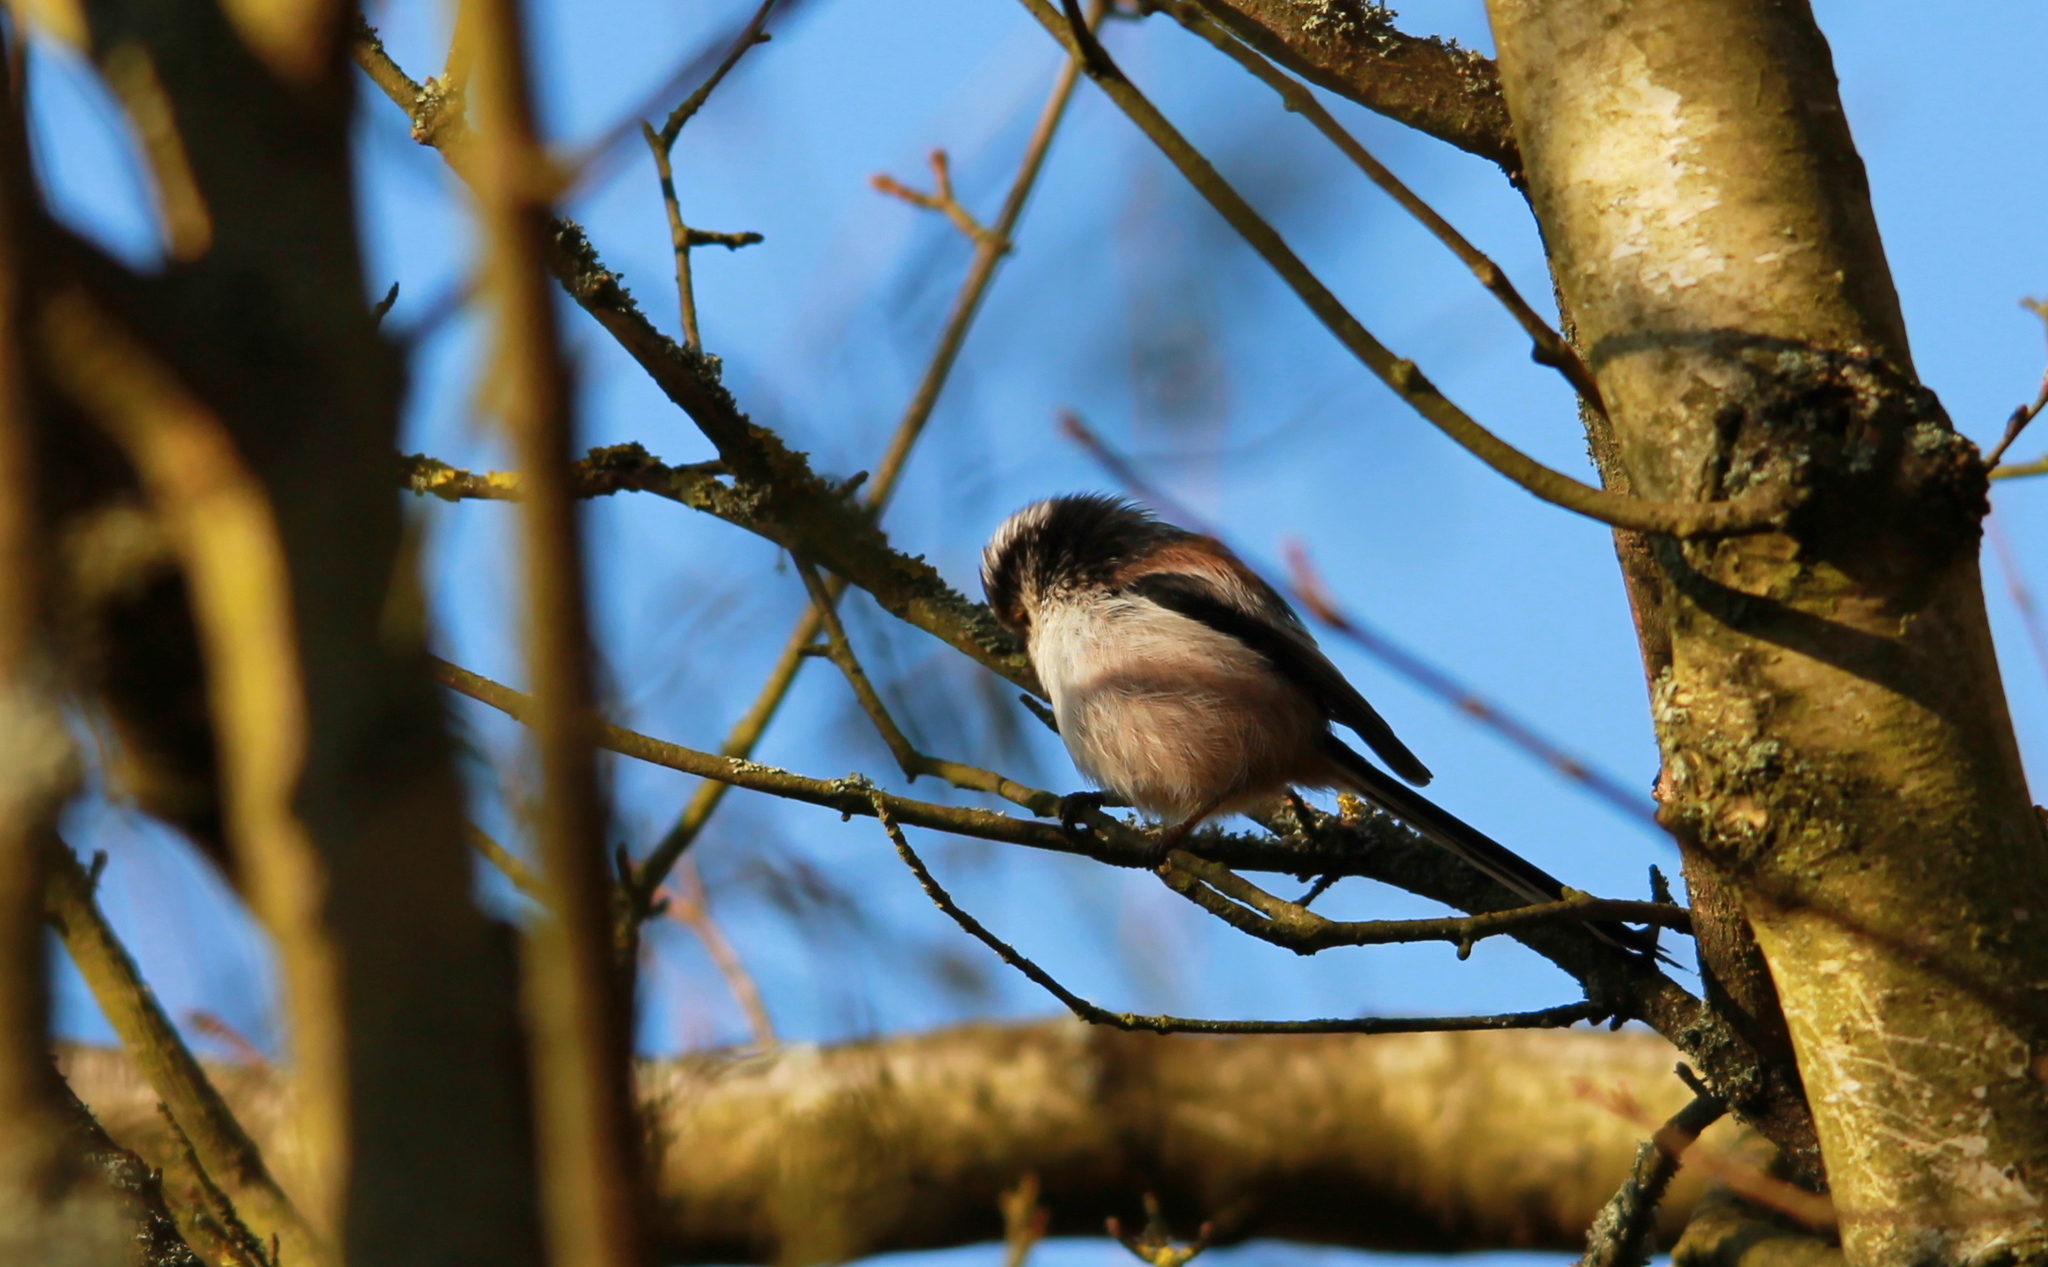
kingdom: Animalia
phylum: Chordata
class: Aves
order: Passeriformes
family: Aegithalidae
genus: Aegithalos
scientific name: Aegithalos caudatus
